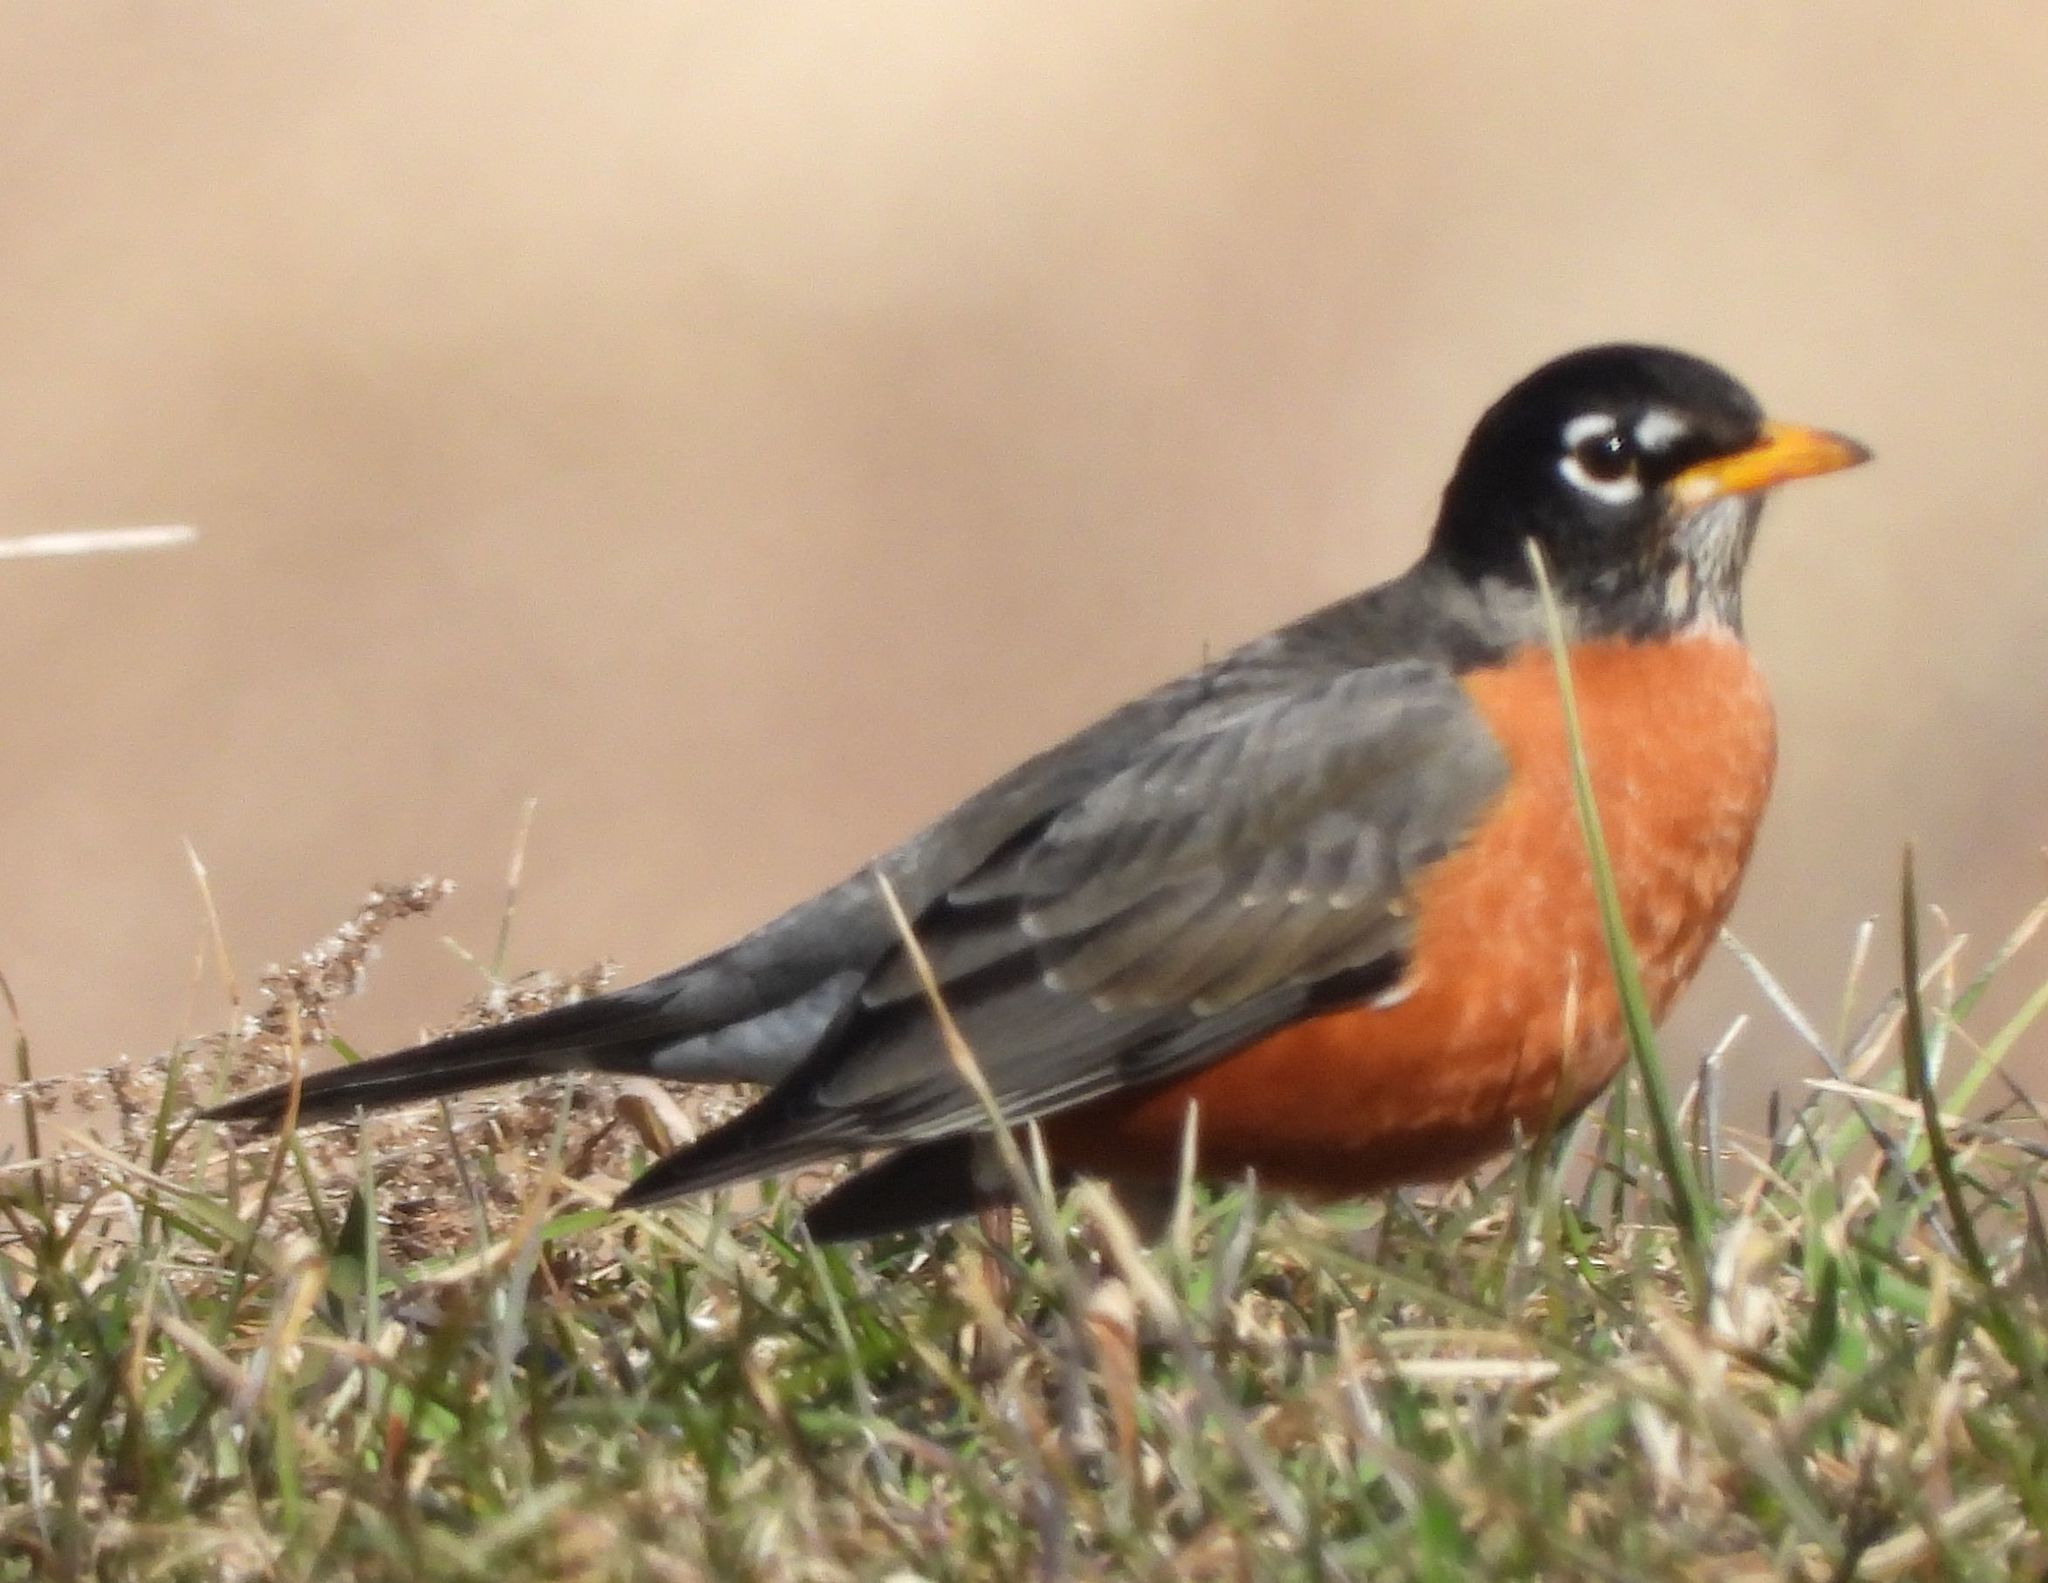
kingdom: Animalia
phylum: Chordata
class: Aves
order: Passeriformes
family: Turdidae
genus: Turdus
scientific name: Turdus migratorius
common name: American robin
